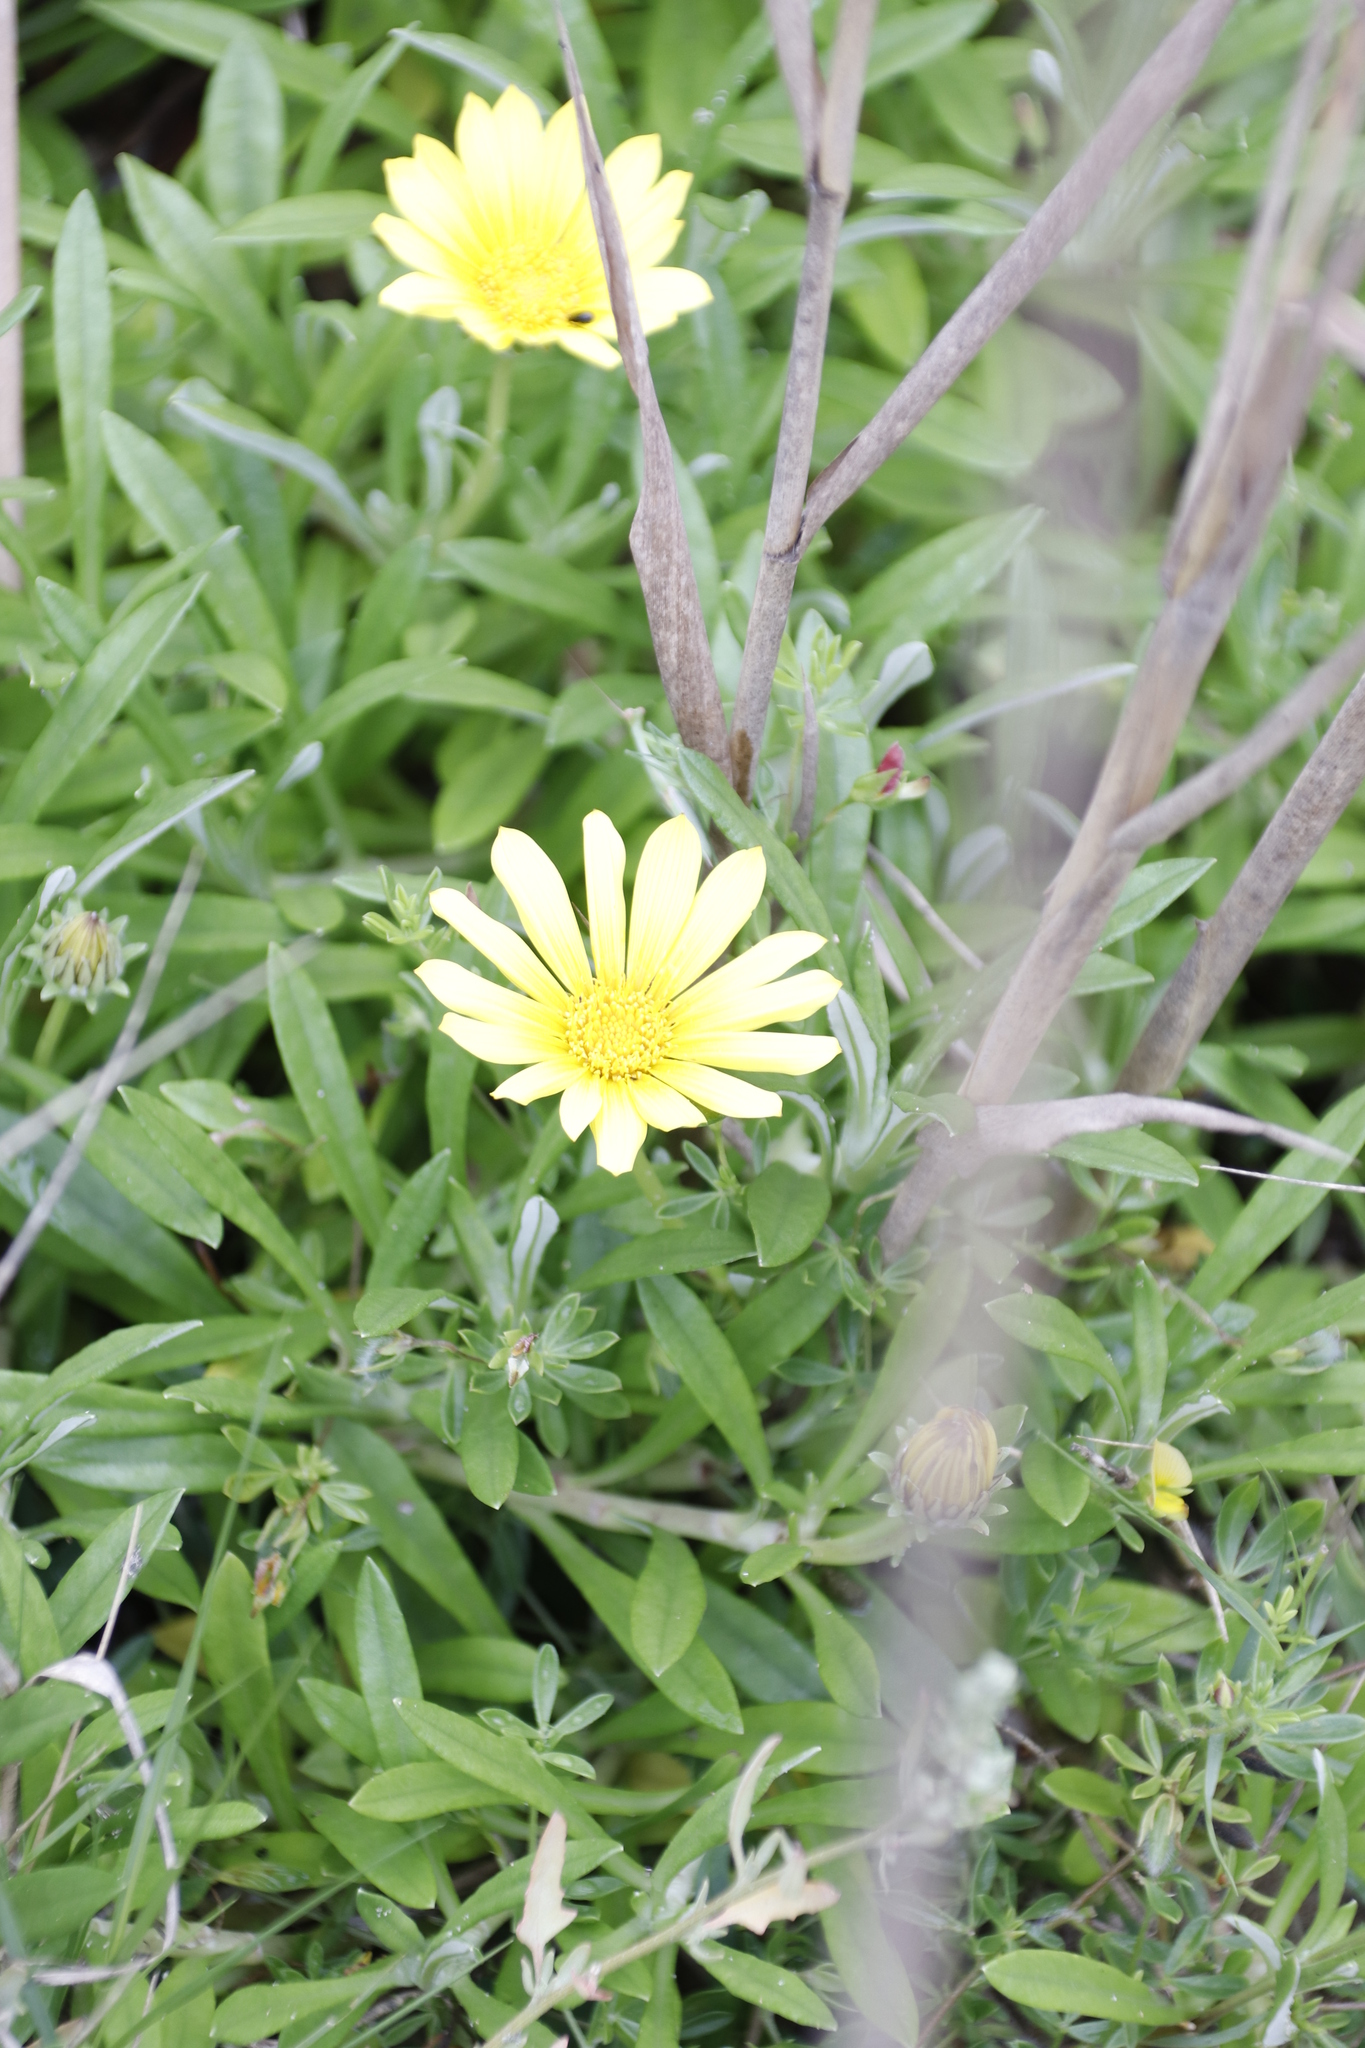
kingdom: Plantae
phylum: Tracheophyta
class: Magnoliopsida
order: Asterales
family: Asteraceae
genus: Gazania
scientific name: Gazania rigens
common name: Treasureflower
